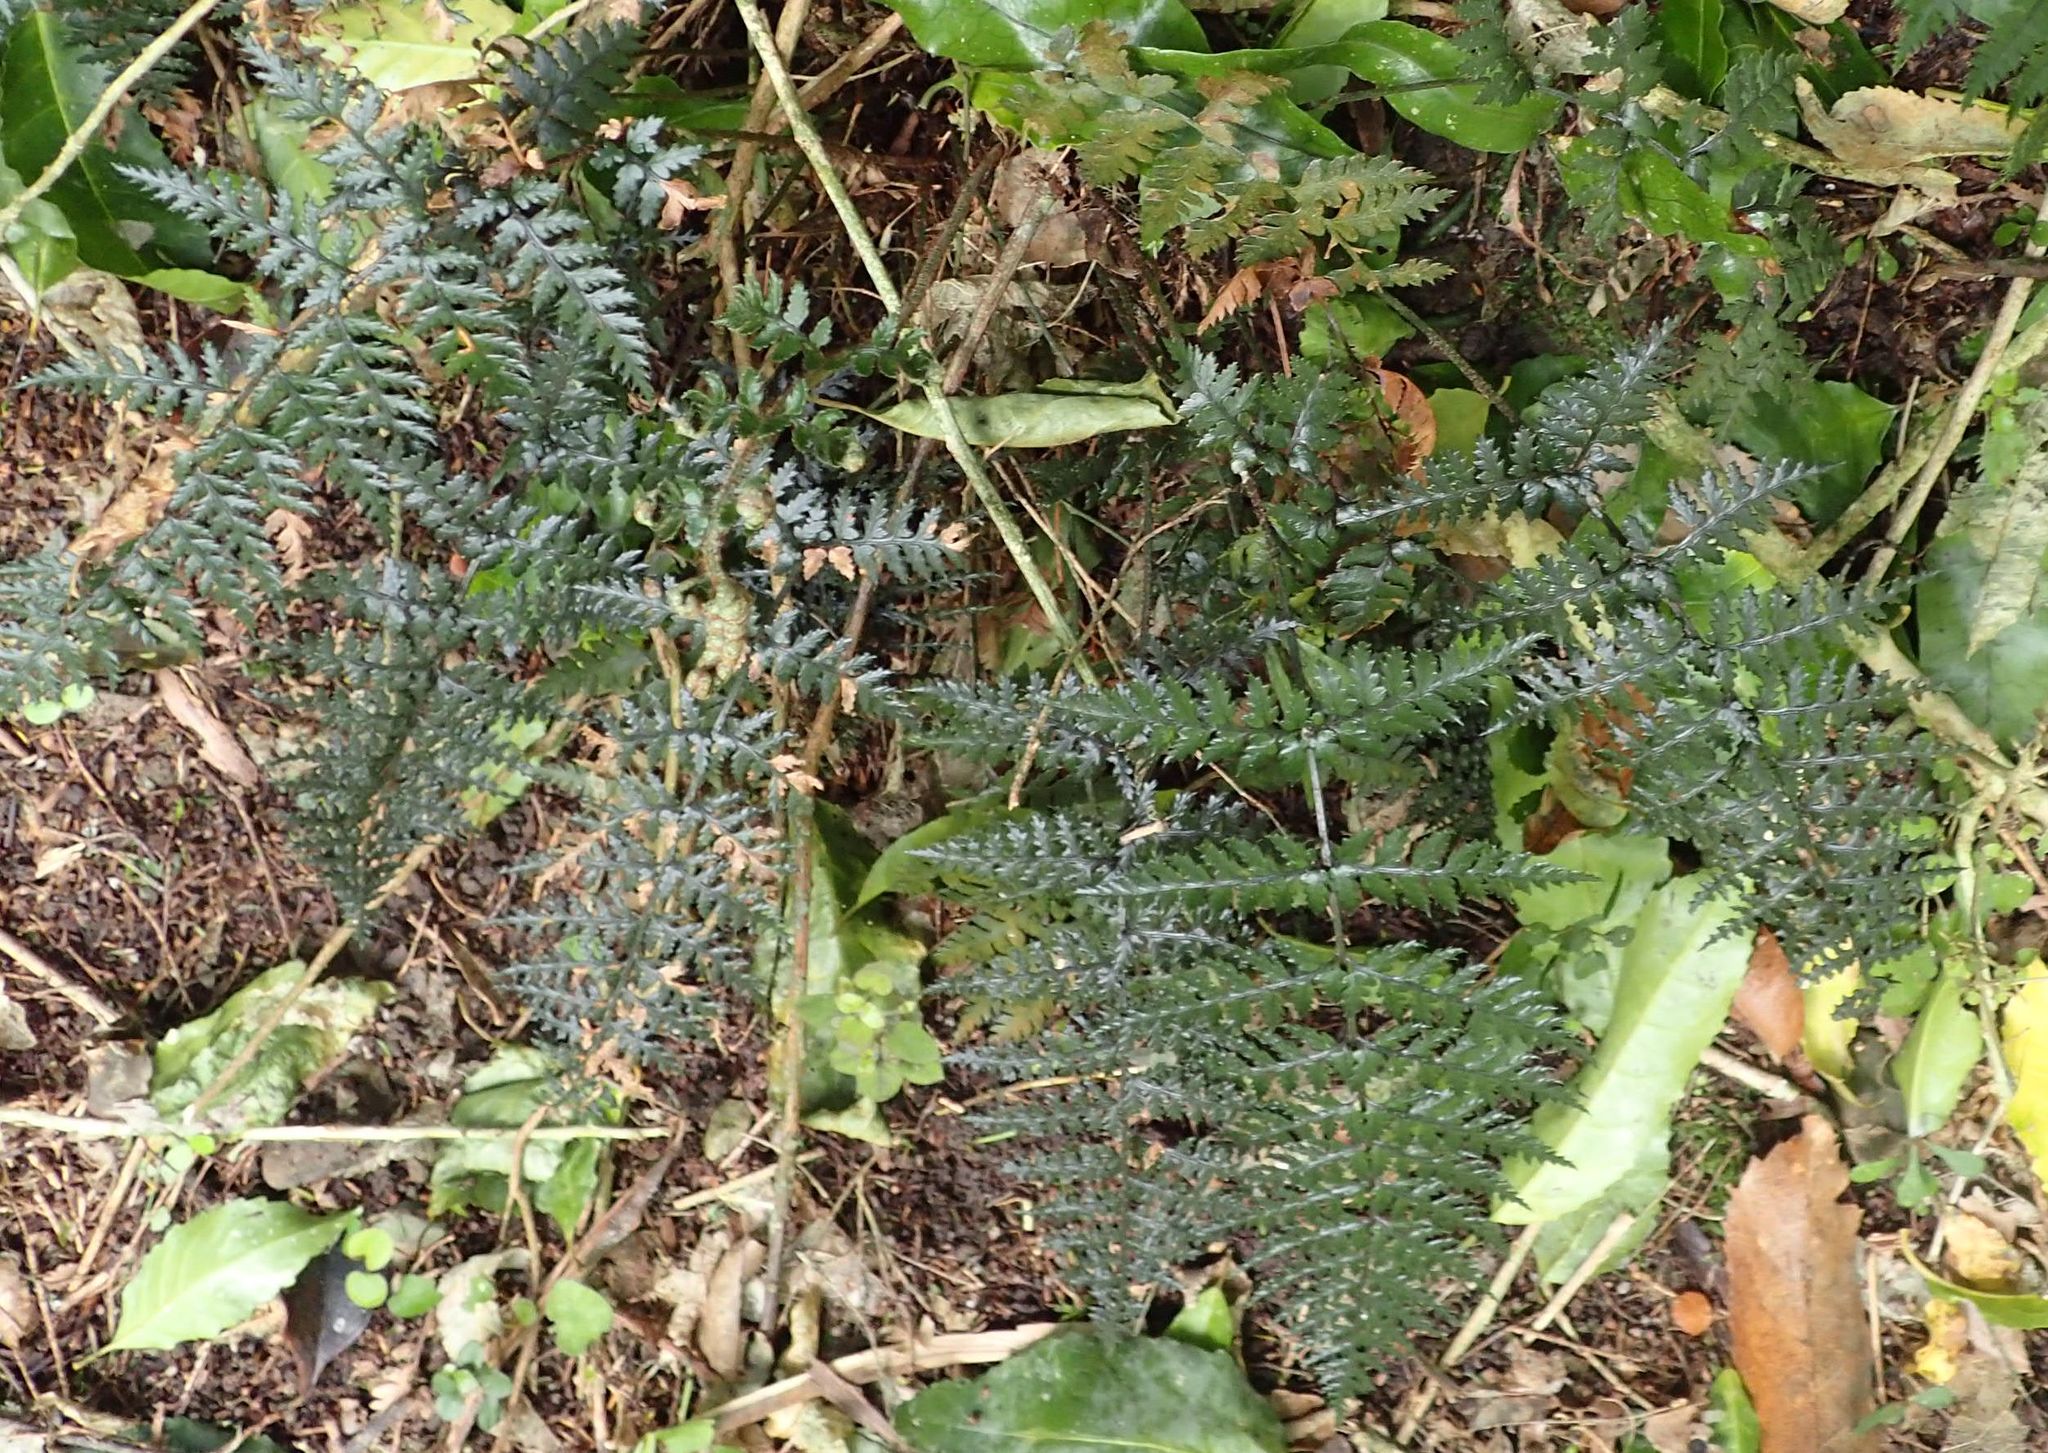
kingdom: Plantae
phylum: Tracheophyta
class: Polypodiopsida
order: Polypodiales
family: Dryopteridaceae
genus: Polystichum
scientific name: Polystichum neozelandicum
